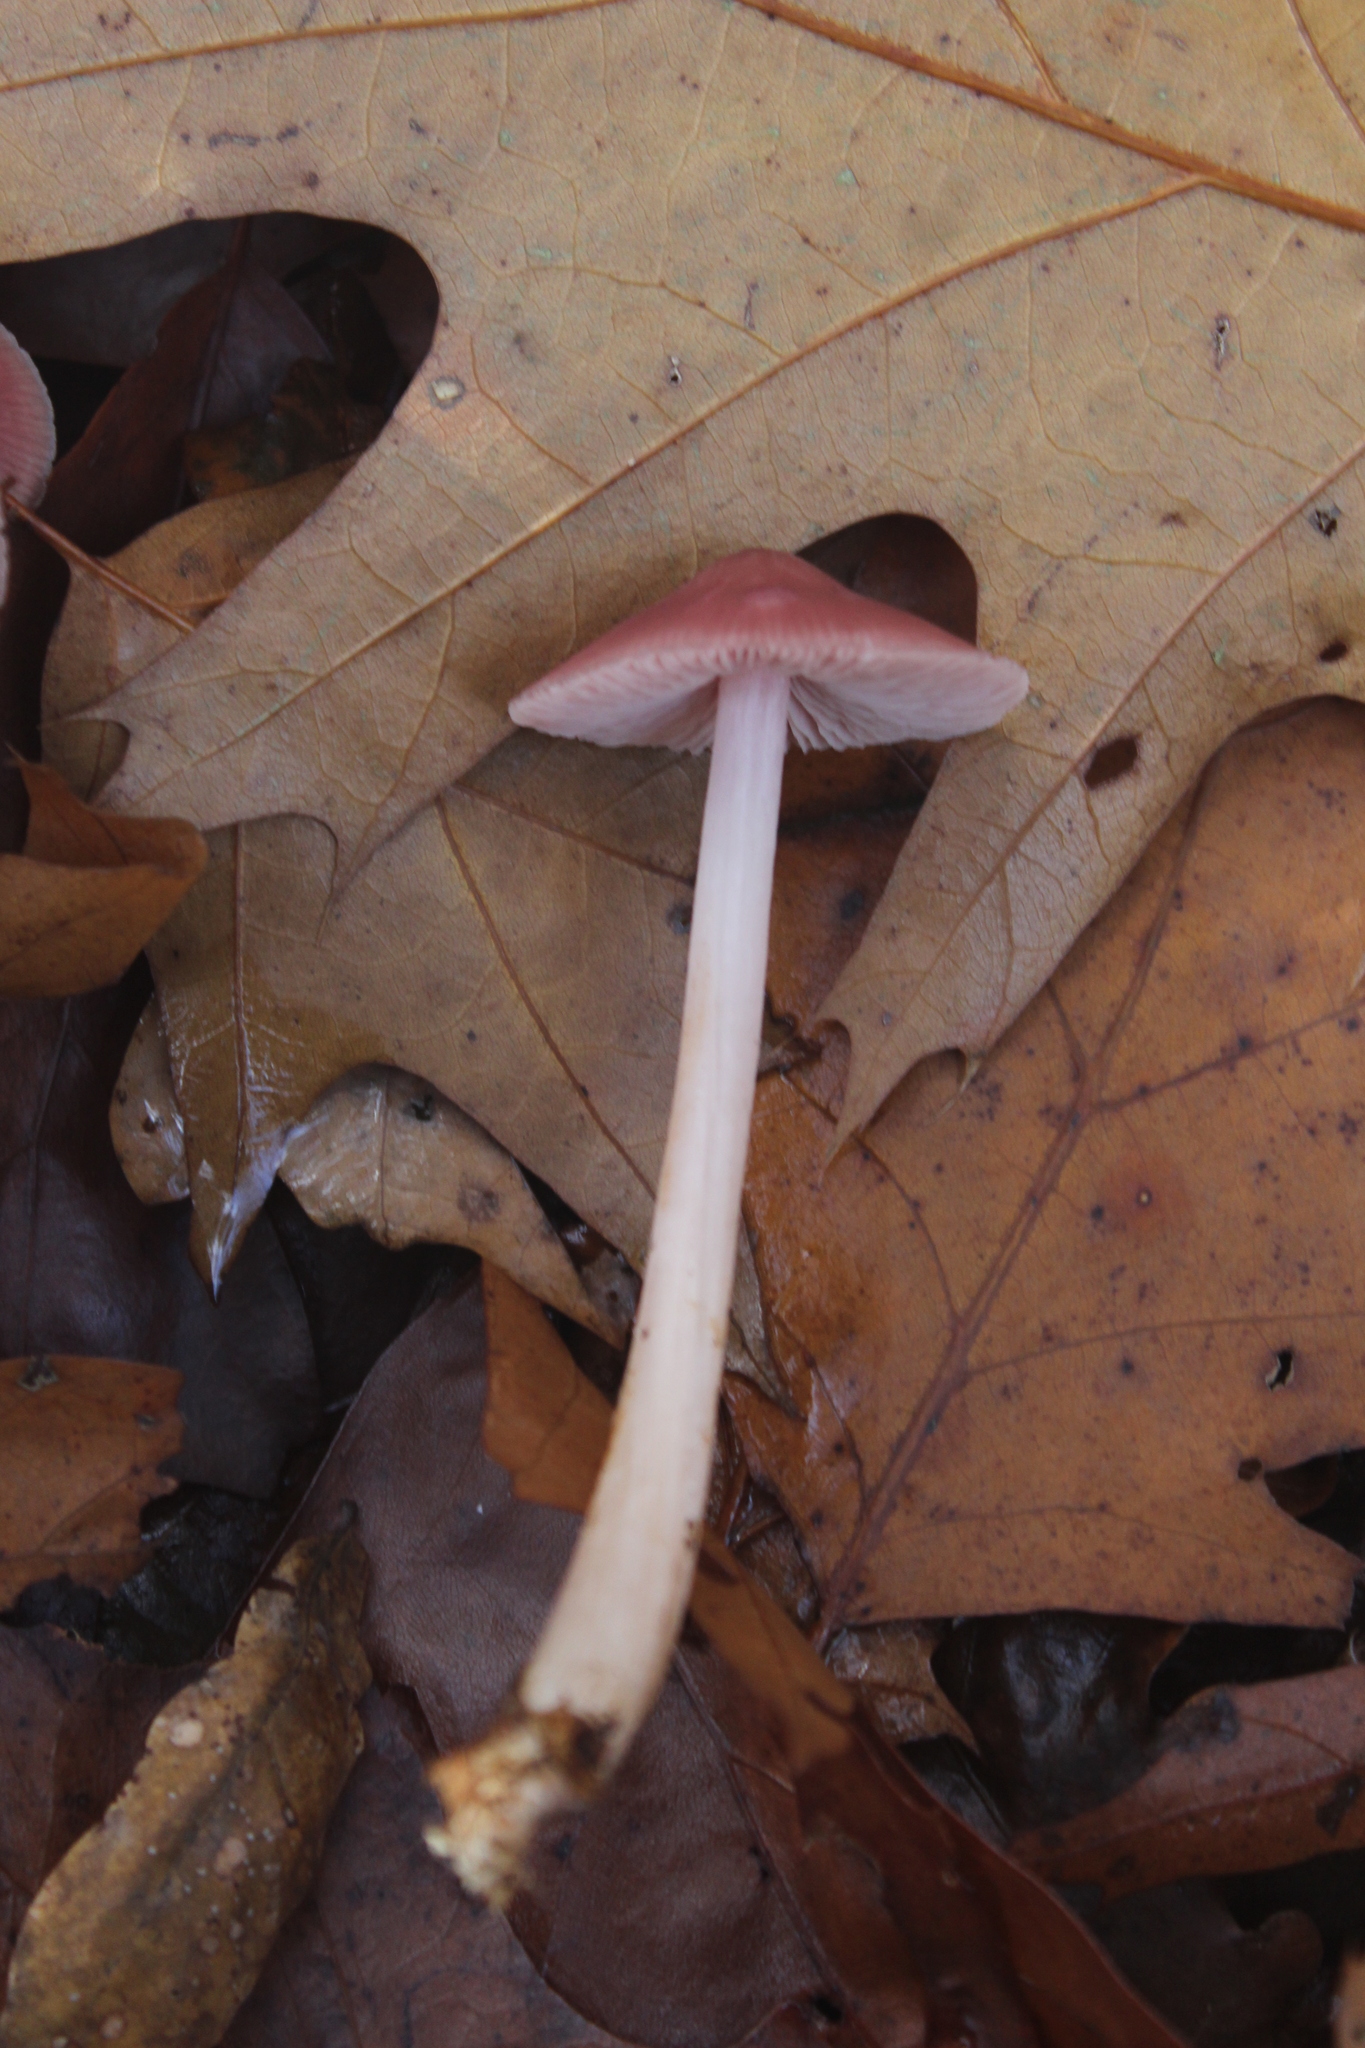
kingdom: Fungi
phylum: Basidiomycota
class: Agaricomycetes
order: Agaricales
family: Mycenaceae
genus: Mycena
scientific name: Mycena rosea
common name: Rosy bonnet
